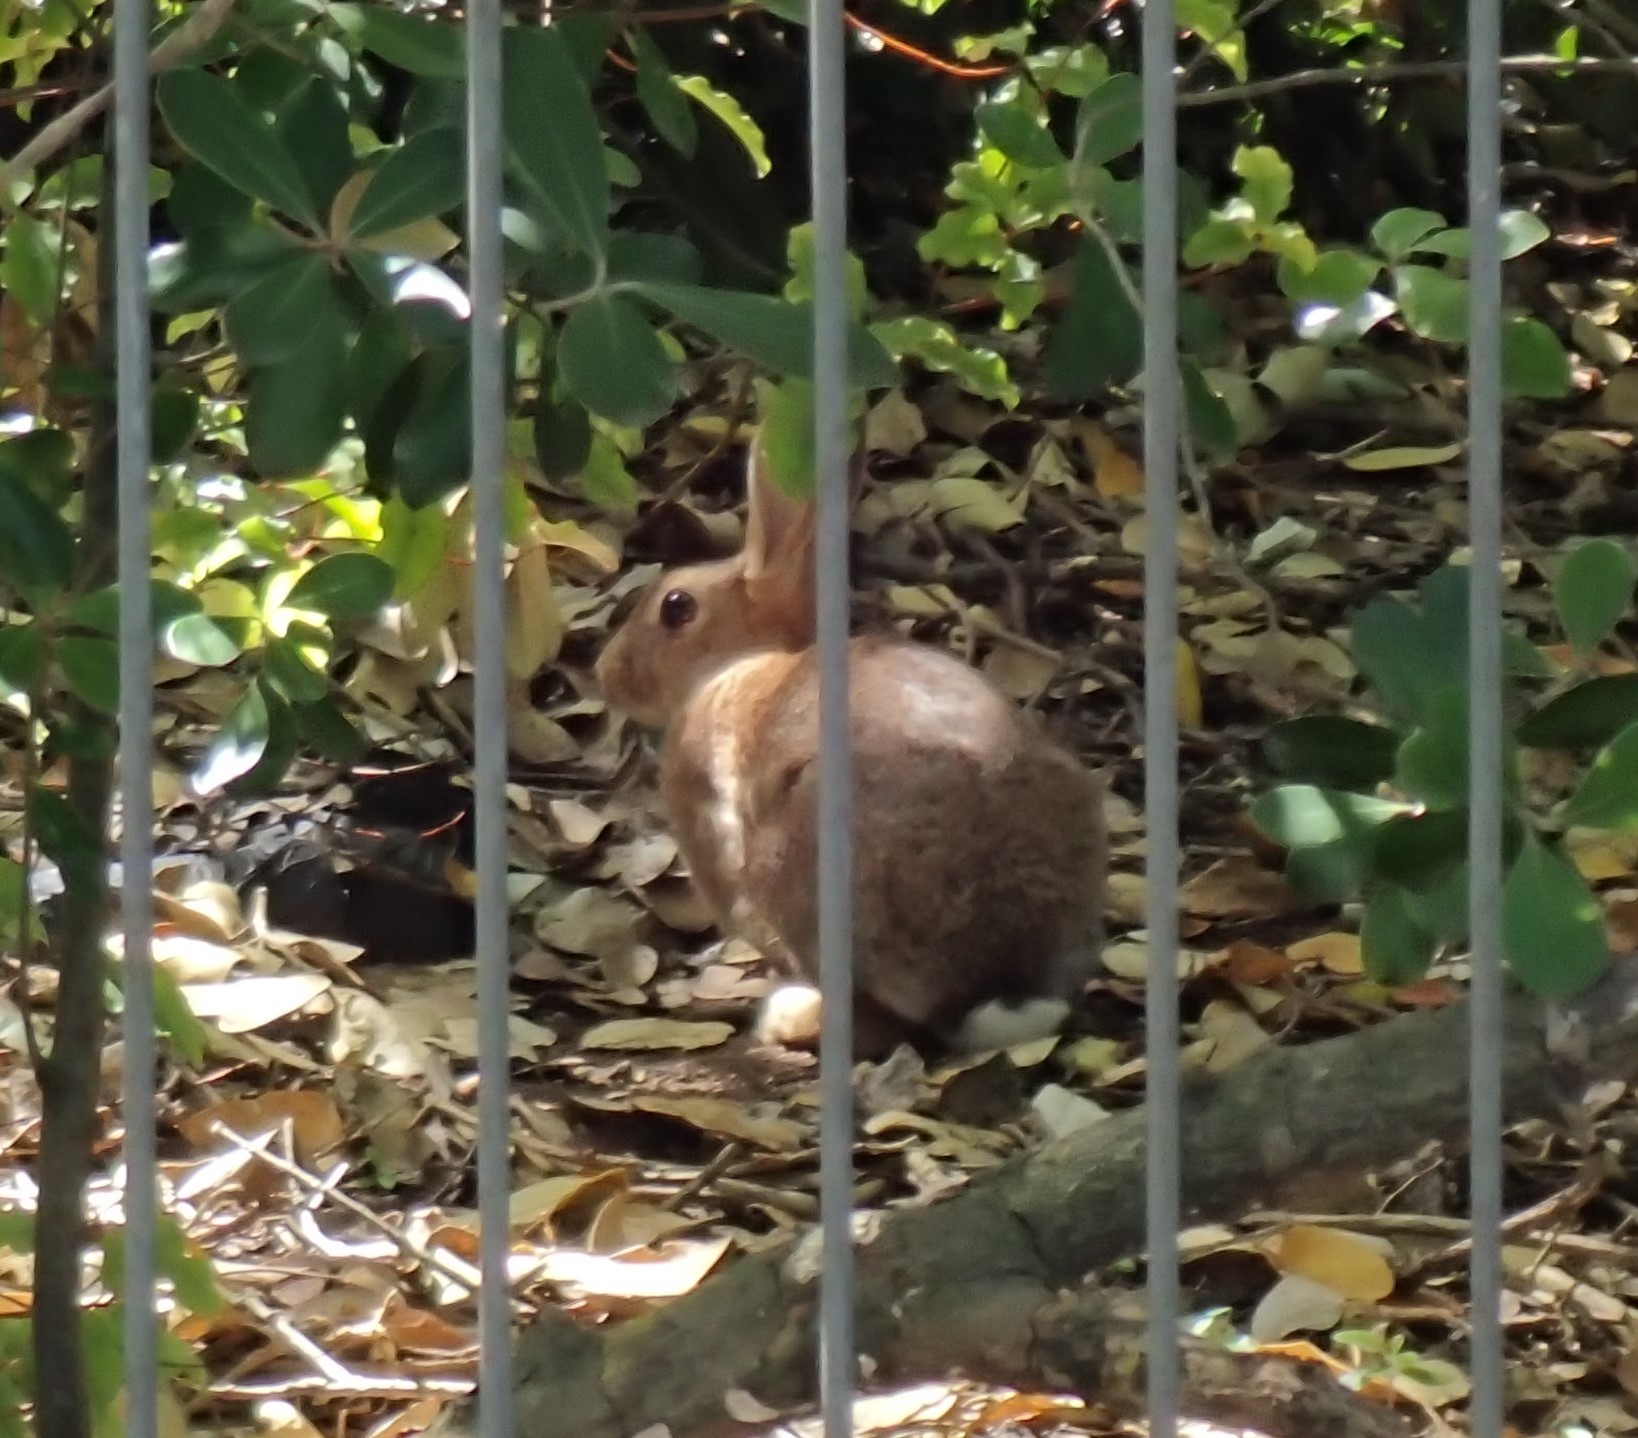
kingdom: Animalia
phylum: Chordata
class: Mammalia
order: Lagomorpha
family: Leporidae
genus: Oryctolagus
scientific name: Oryctolagus cuniculus
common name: European rabbit
